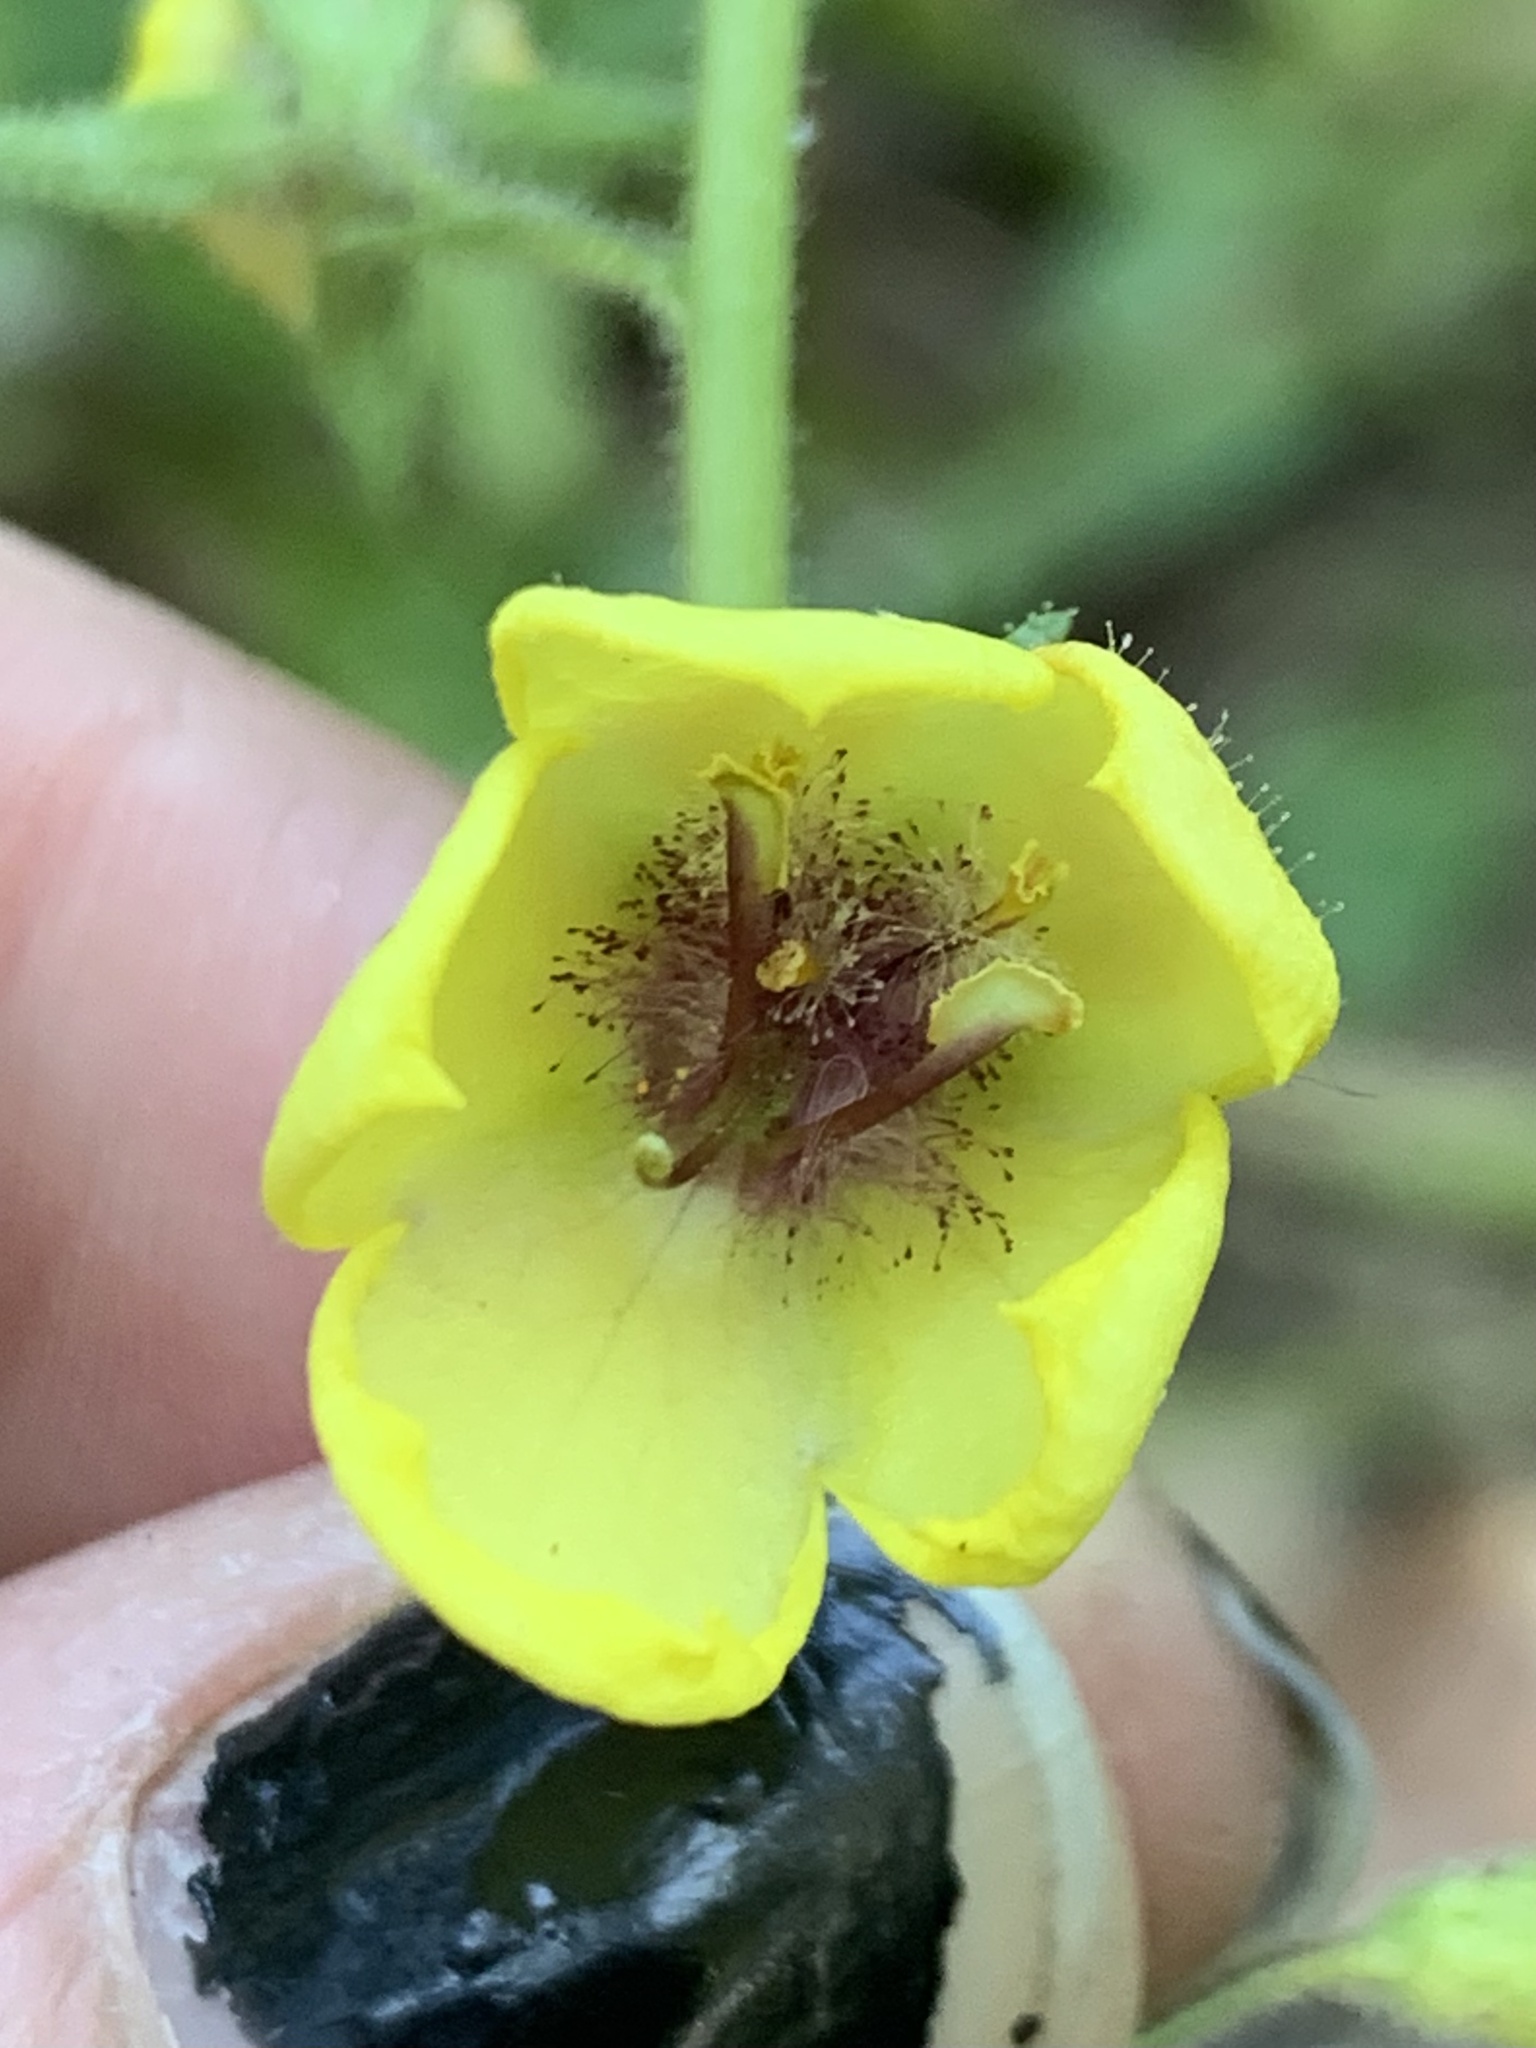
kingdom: Plantae
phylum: Tracheophyta
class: Magnoliopsida
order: Lamiales
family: Scrophulariaceae
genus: Verbascum
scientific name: Verbascum blattaria
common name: Moth mullein
